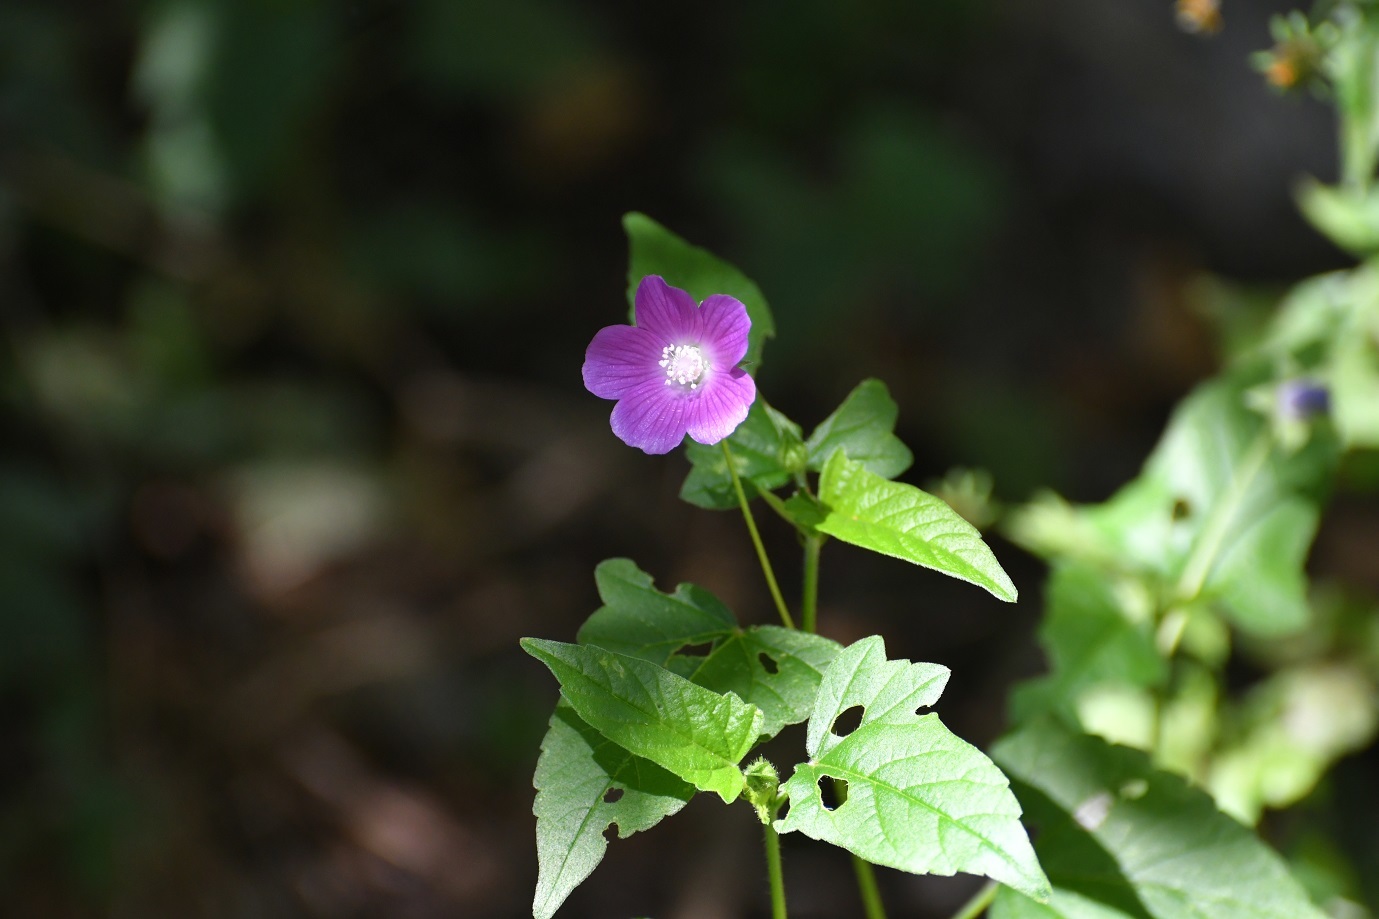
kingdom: Plantae
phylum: Tracheophyta
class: Magnoliopsida
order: Malvales
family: Malvaceae
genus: Anoda
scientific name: Anoda cristata
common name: Spurred anoda
